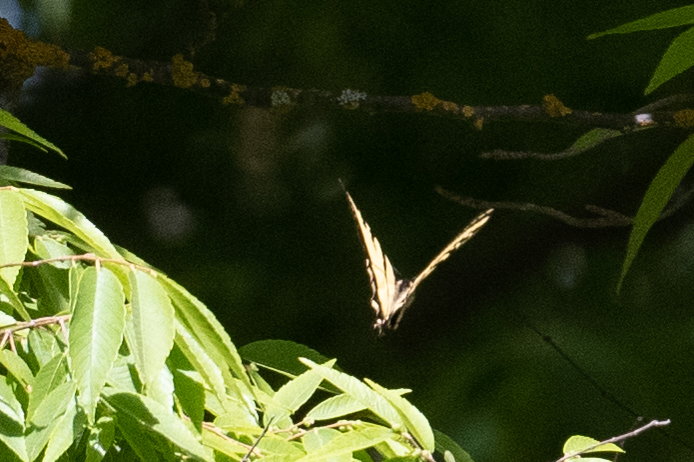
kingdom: Animalia
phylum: Arthropoda
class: Insecta
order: Lepidoptera
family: Papilionidae
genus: Papilio
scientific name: Papilio rutulus
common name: Western tiger swallowtail
